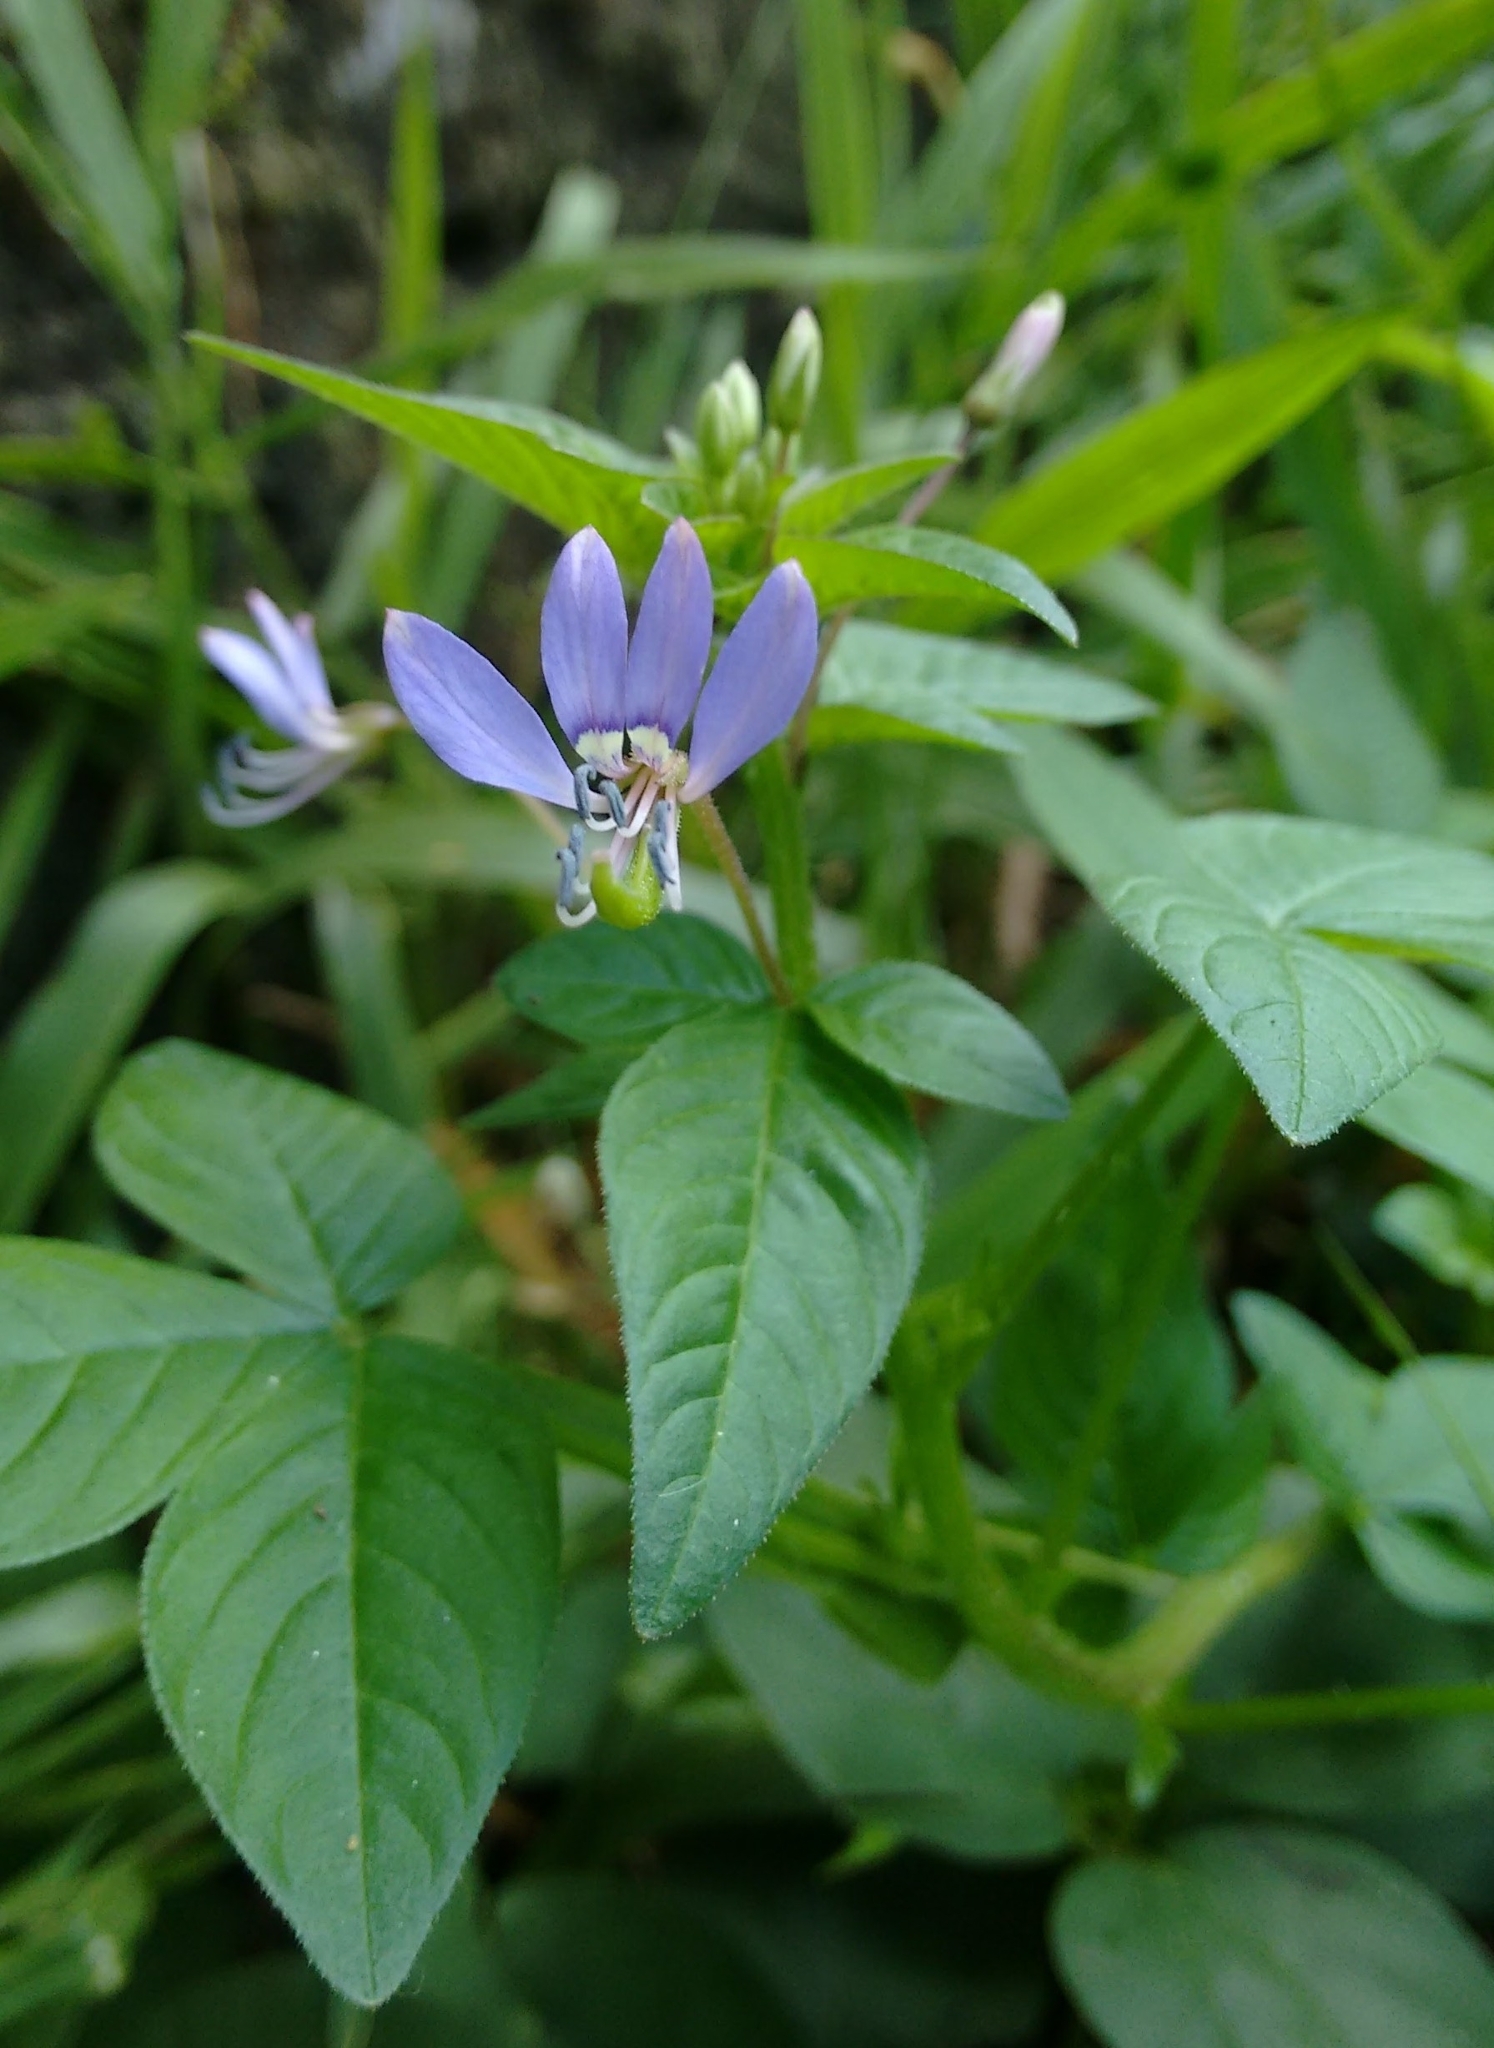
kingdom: Plantae
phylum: Tracheophyta
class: Magnoliopsida
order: Brassicales
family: Cleomaceae
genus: Sieruela
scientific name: Sieruela rutidosperma
